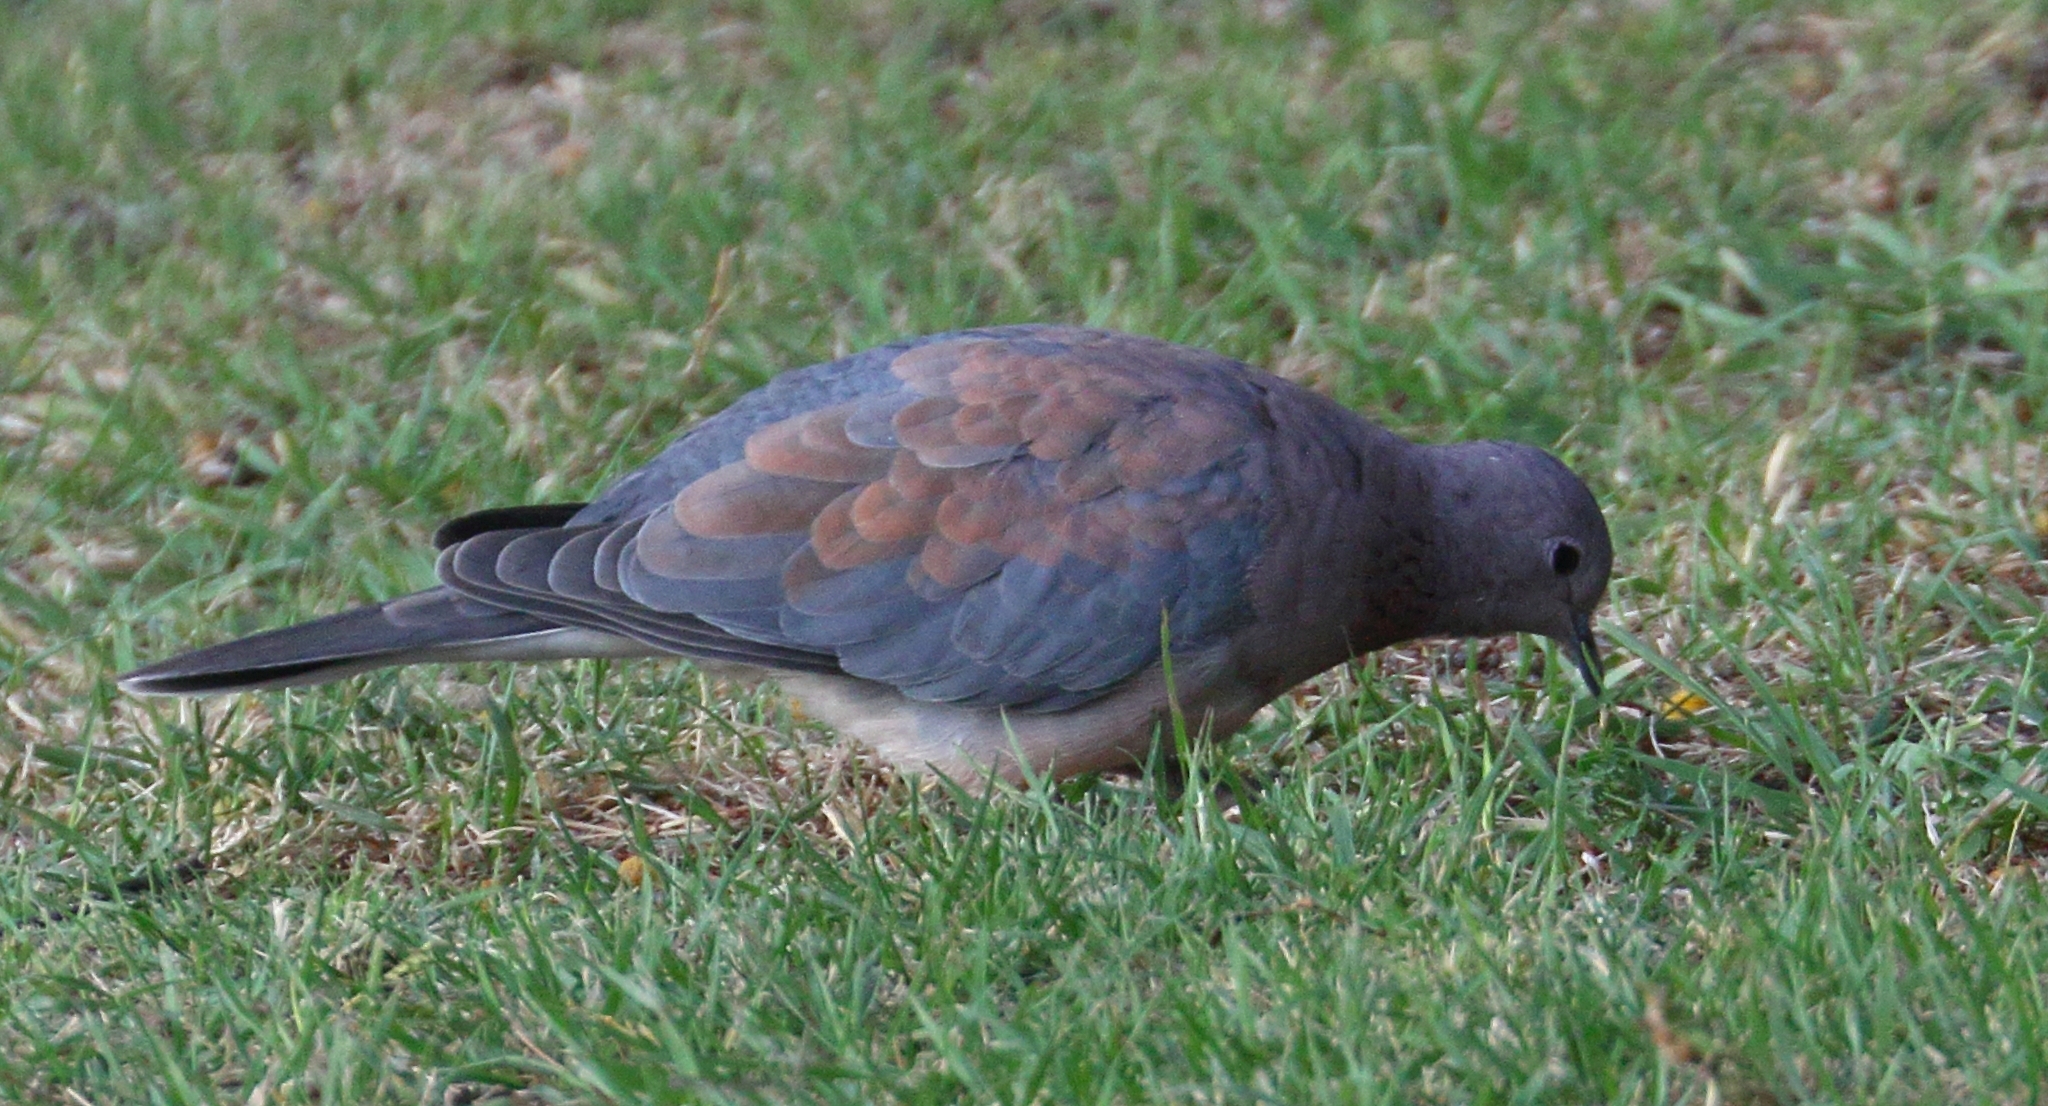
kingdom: Animalia
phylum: Chordata
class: Aves
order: Columbiformes
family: Columbidae
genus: Spilopelia
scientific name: Spilopelia senegalensis
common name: Laughing dove
